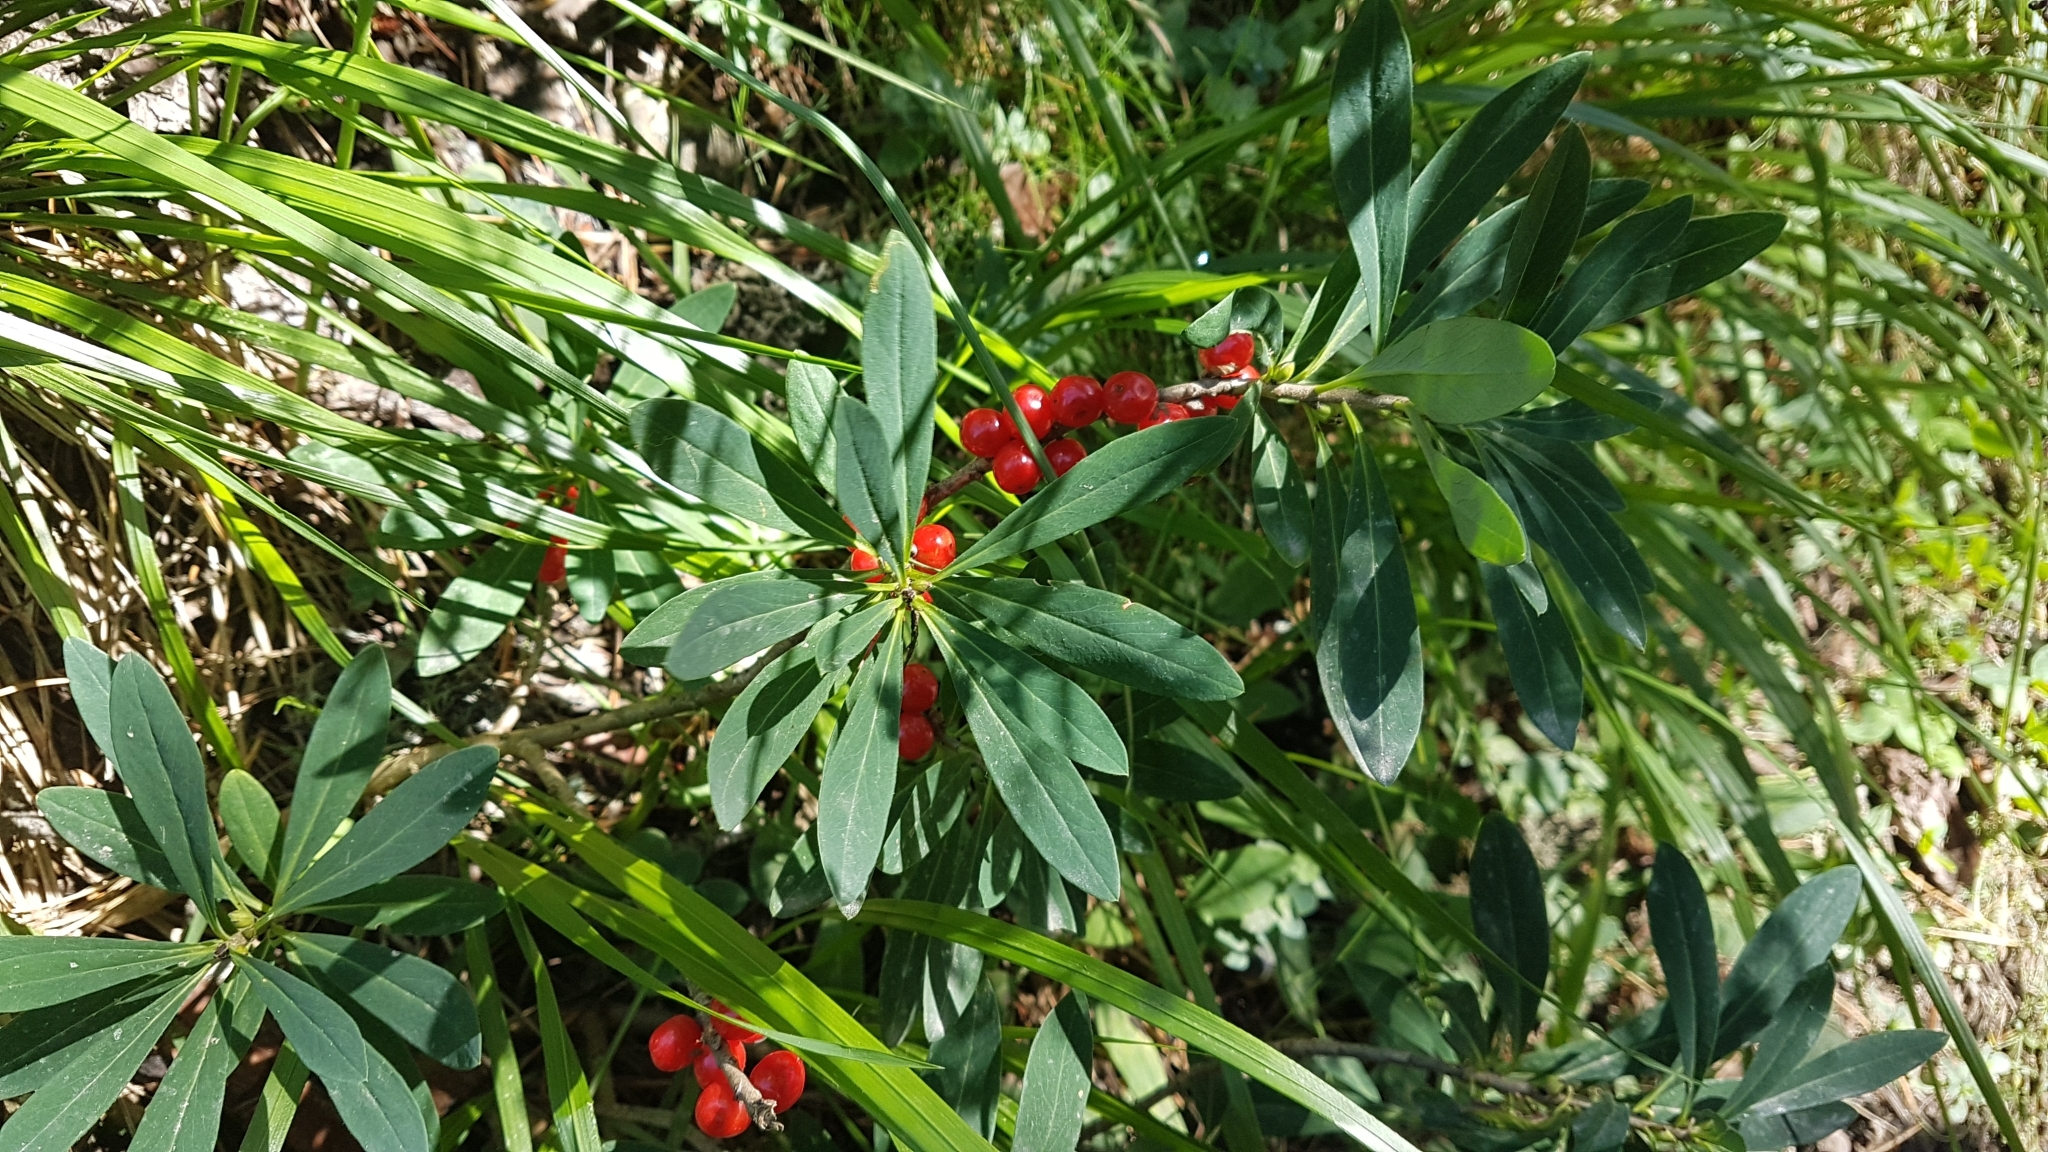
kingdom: Plantae
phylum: Tracheophyta
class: Magnoliopsida
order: Malvales
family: Thymelaeaceae
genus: Daphne
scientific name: Daphne mezereum
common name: Mezereon
